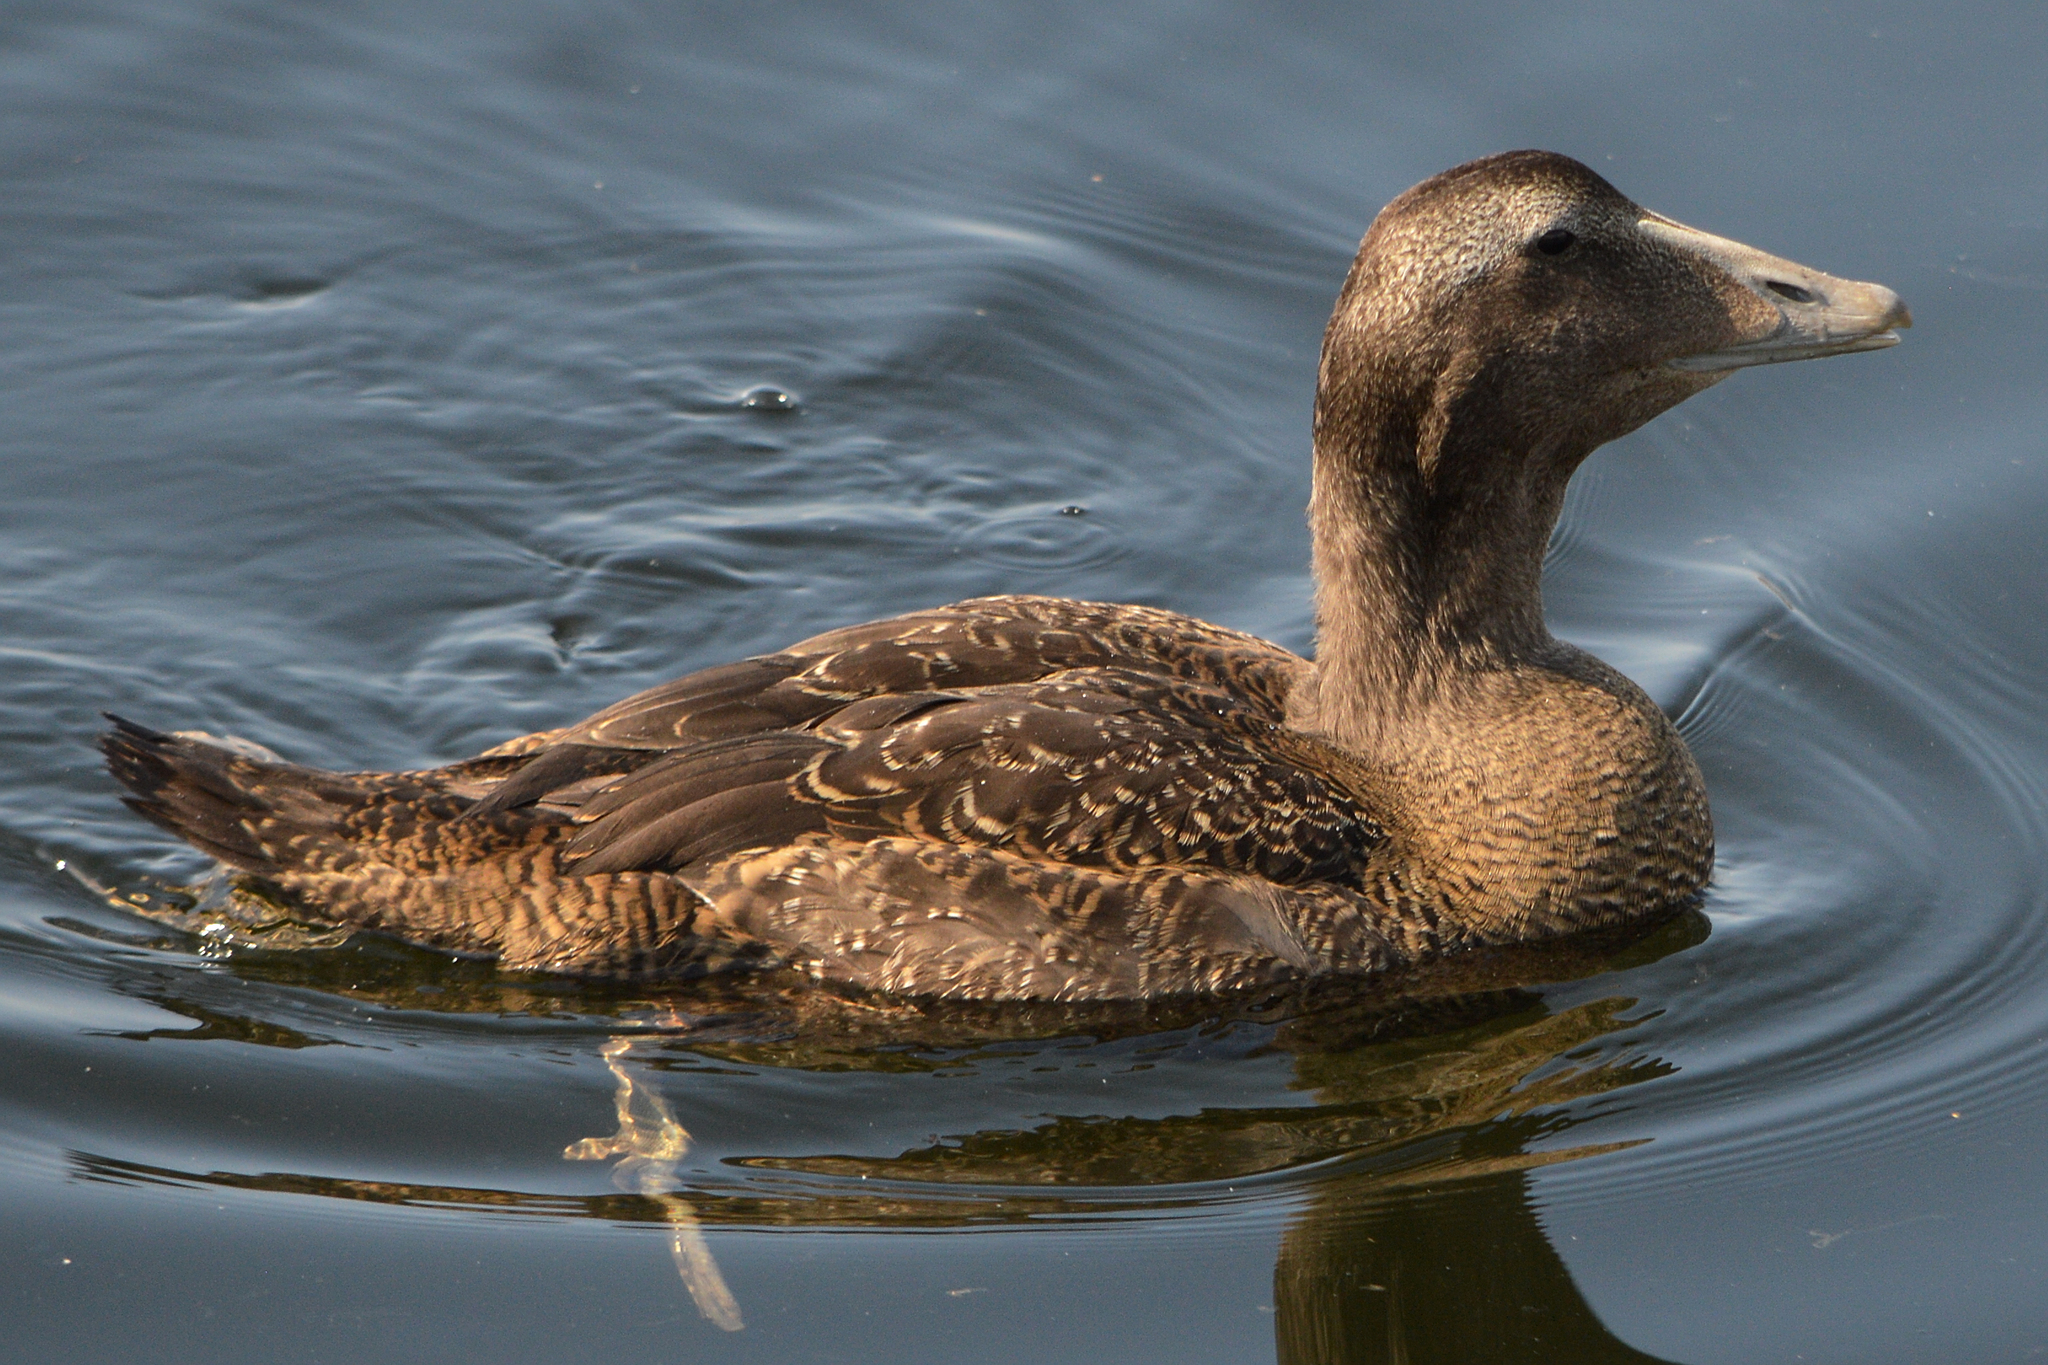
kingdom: Animalia
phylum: Chordata
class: Aves
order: Anseriformes
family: Anatidae
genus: Somateria
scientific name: Somateria mollissima
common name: Common eider
